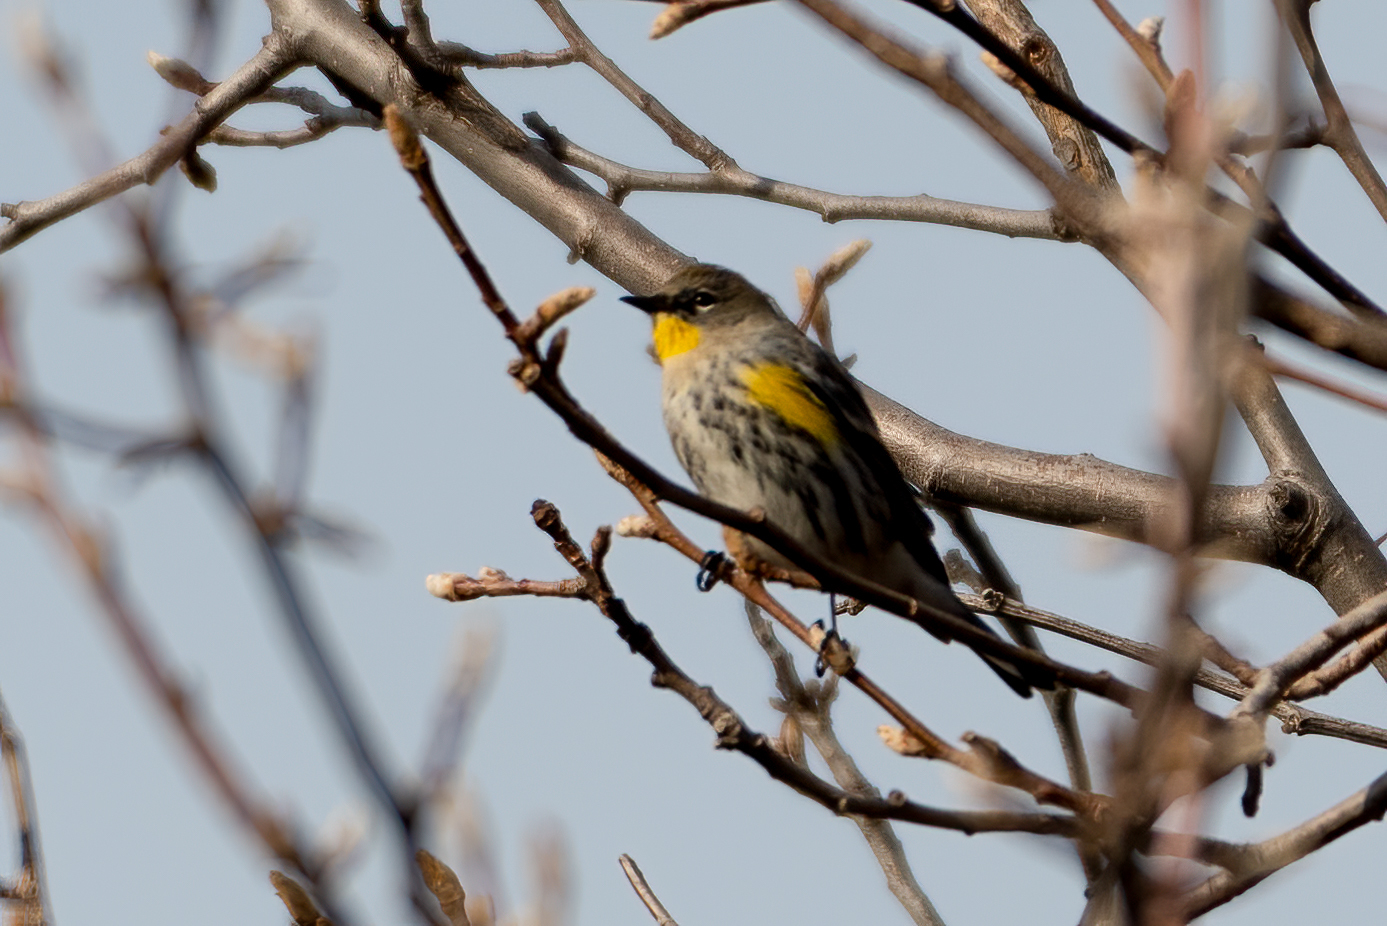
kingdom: Animalia
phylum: Chordata
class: Aves
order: Passeriformes
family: Parulidae
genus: Setophaga
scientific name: Setophaga coronata
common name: Myrtle warbler
